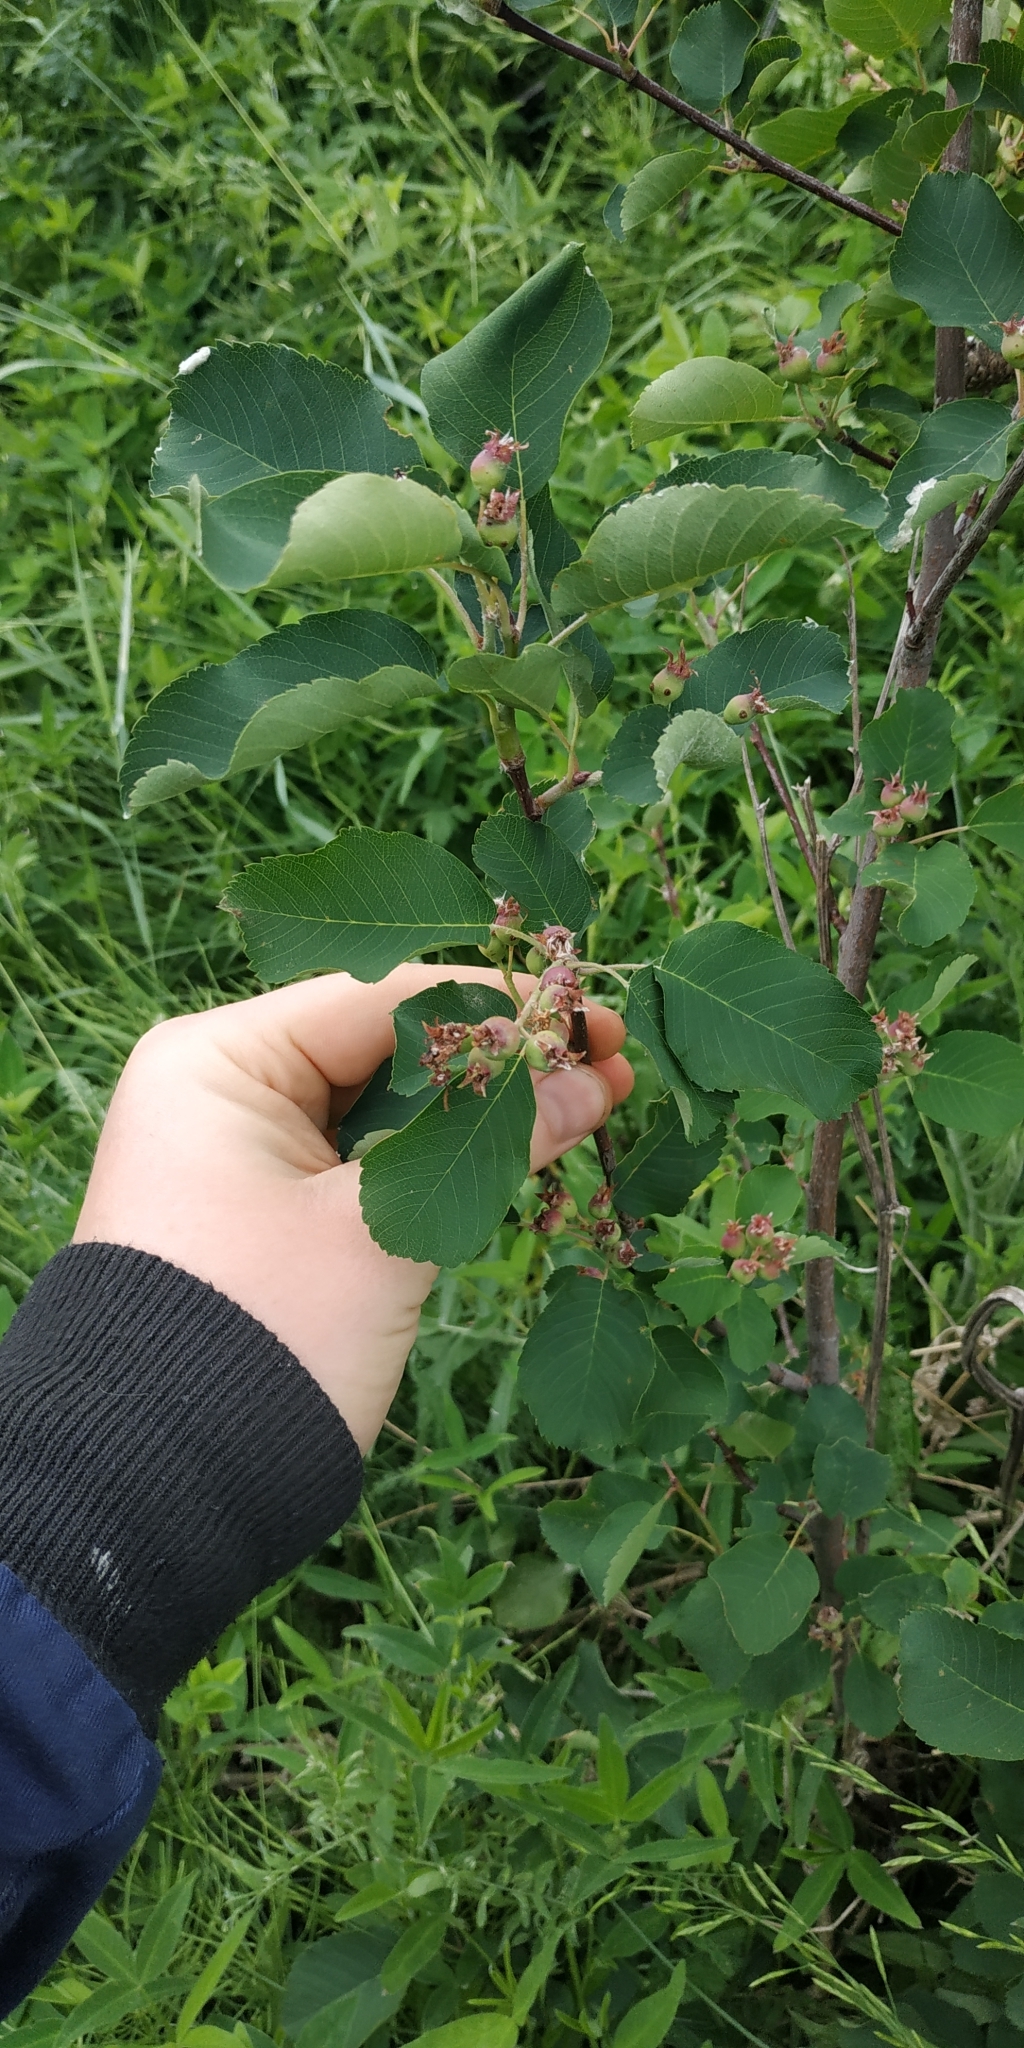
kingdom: Plantae
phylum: Tracheophyta
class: Magnoliopsida
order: Rosales
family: Rosaceae
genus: Amelanchier
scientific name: Amelanchier alnifolia
